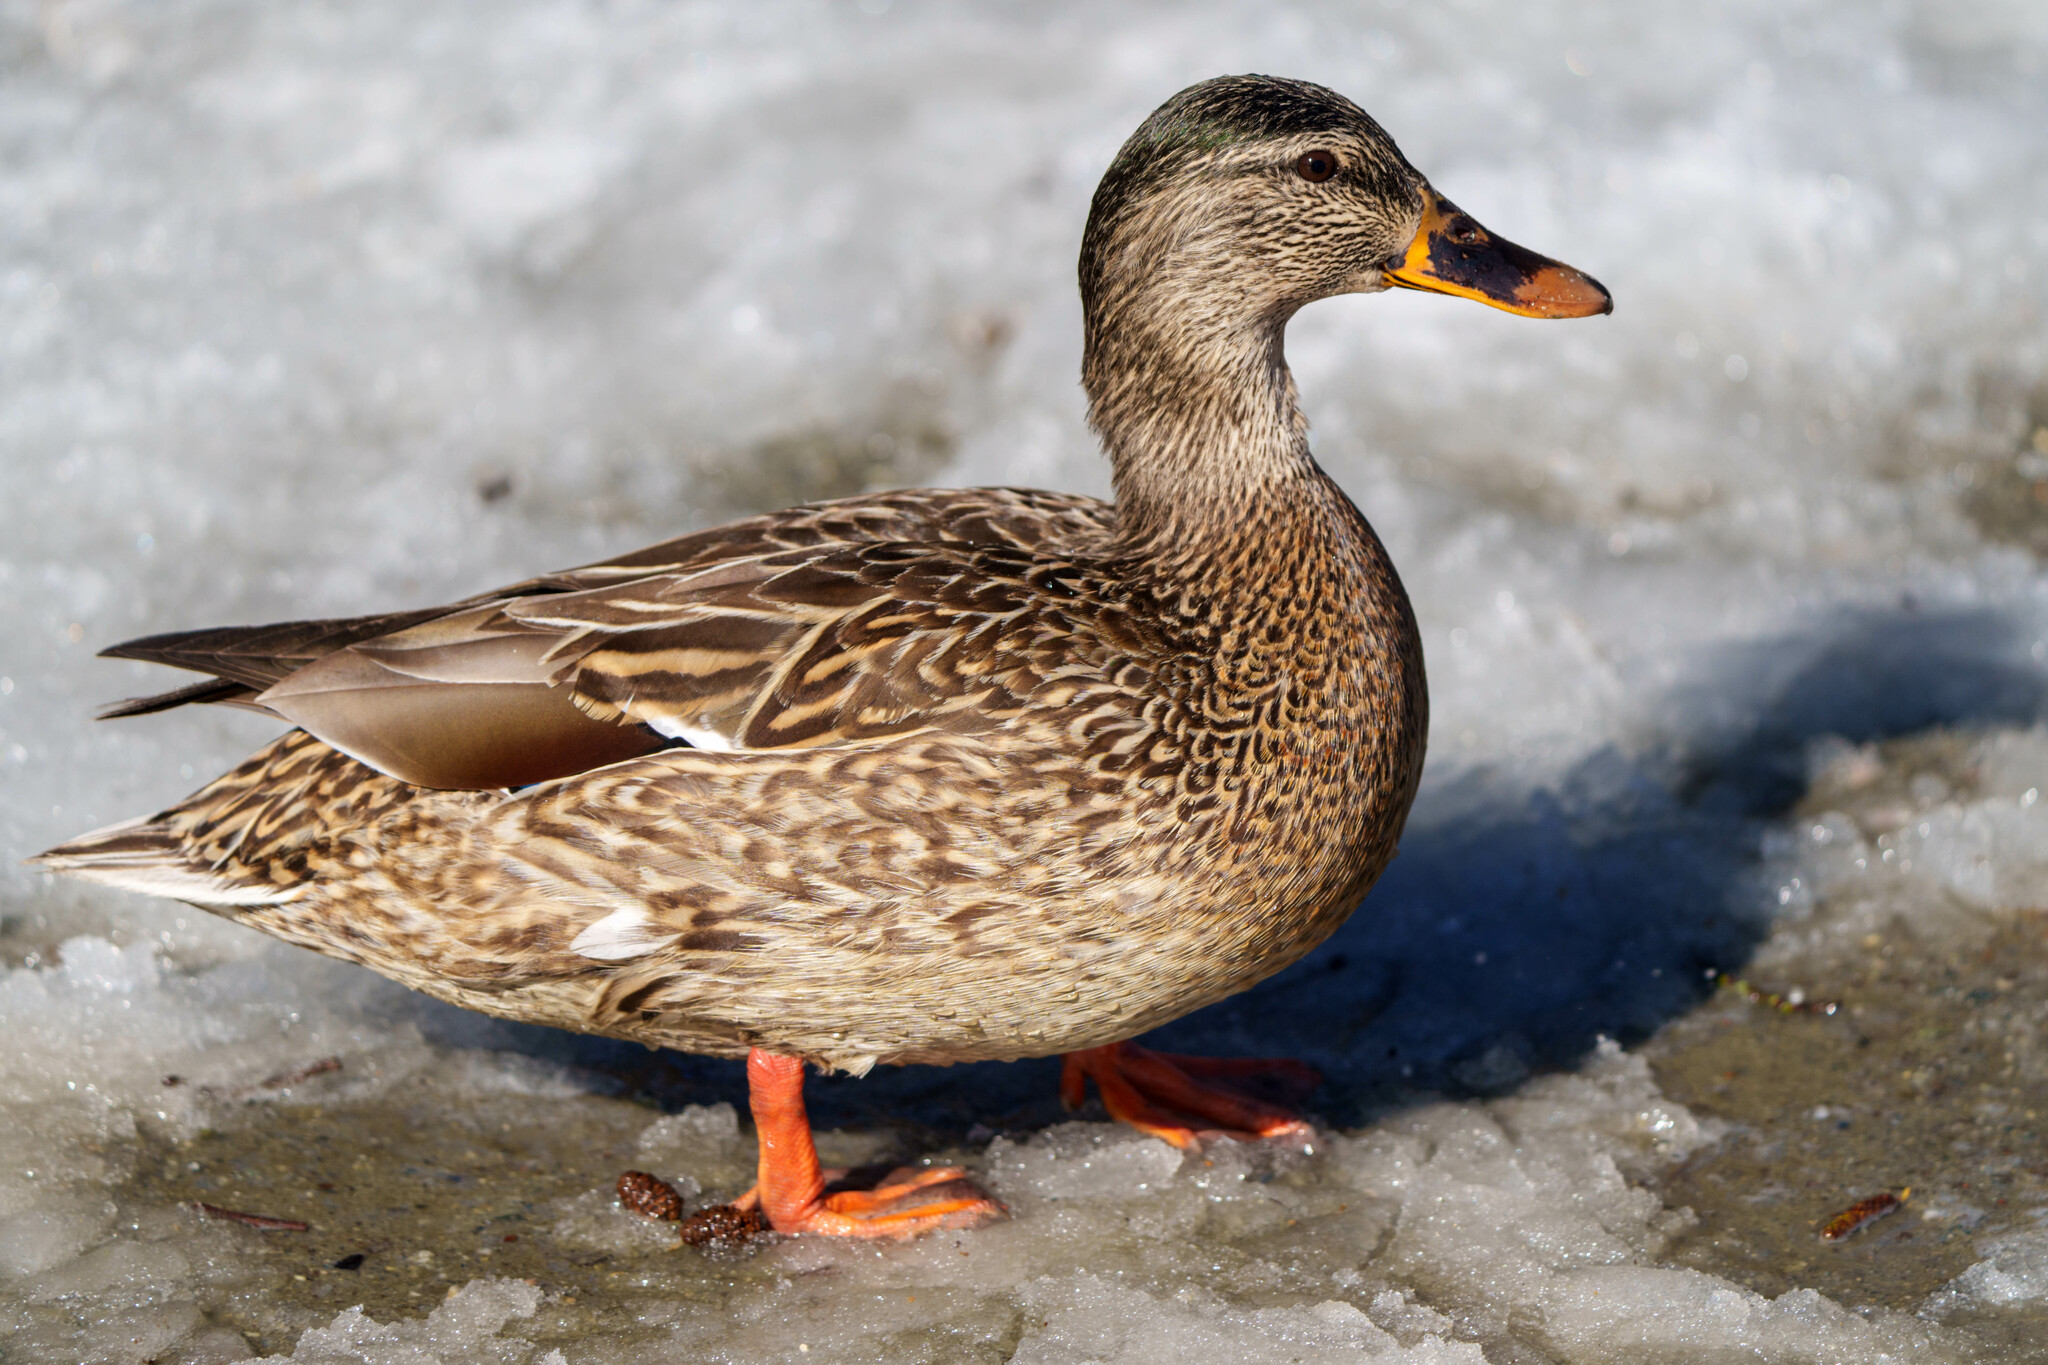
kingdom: Animalia
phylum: Chordata
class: Aves
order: Anseriformes
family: Anatidae
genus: Anas
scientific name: Anas platyrhynchos
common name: Mallard
